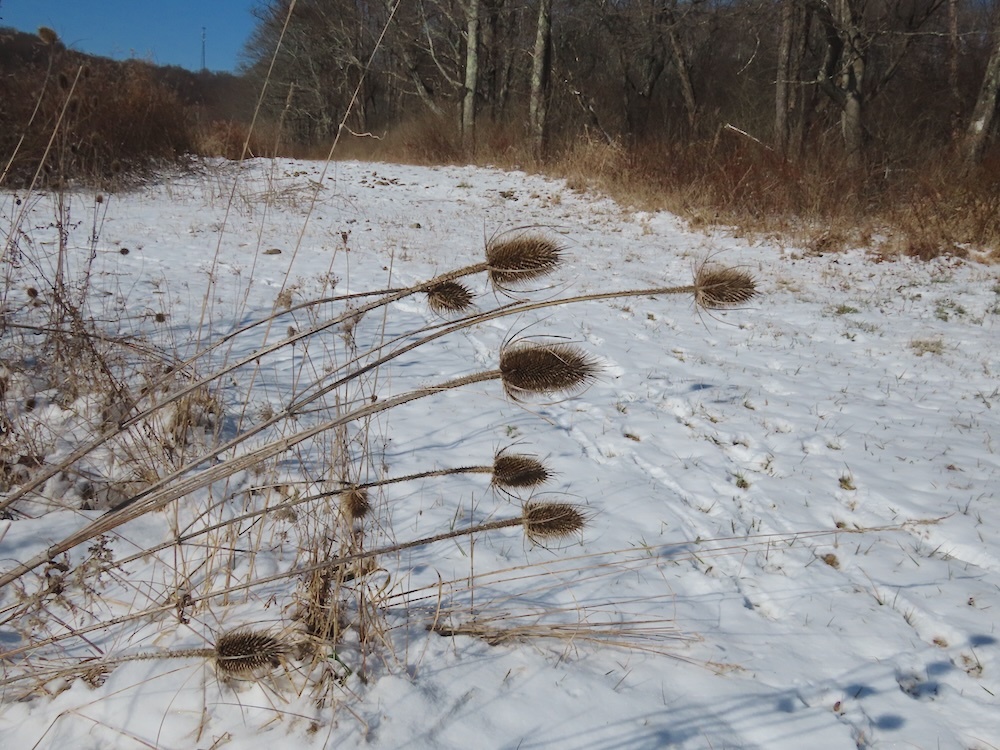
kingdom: Plantae
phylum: Tracheophyta
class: Magnoliopsida
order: Dipsacales
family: Caprifoliaceae
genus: Dipsacus
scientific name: Dipsacus fullonum
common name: Teasel
